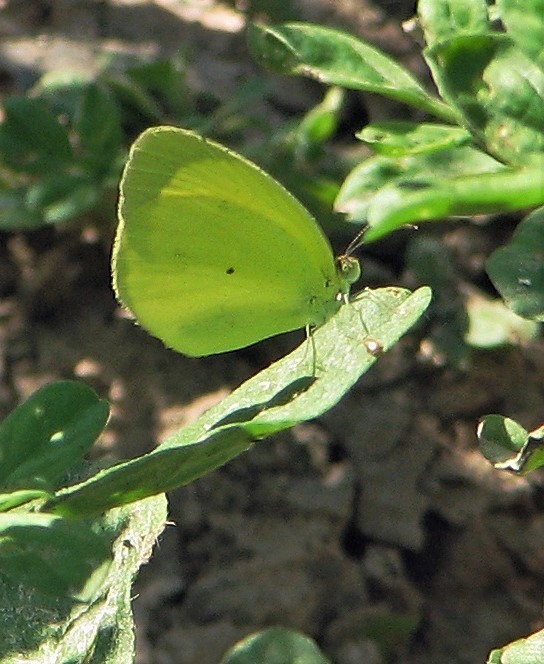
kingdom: Animalia
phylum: Arthropoda
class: Insecta
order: Lepidoptera
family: Pieridae
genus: Pyrisitia
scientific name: Pyrisitia nise
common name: Mimosa yellow
